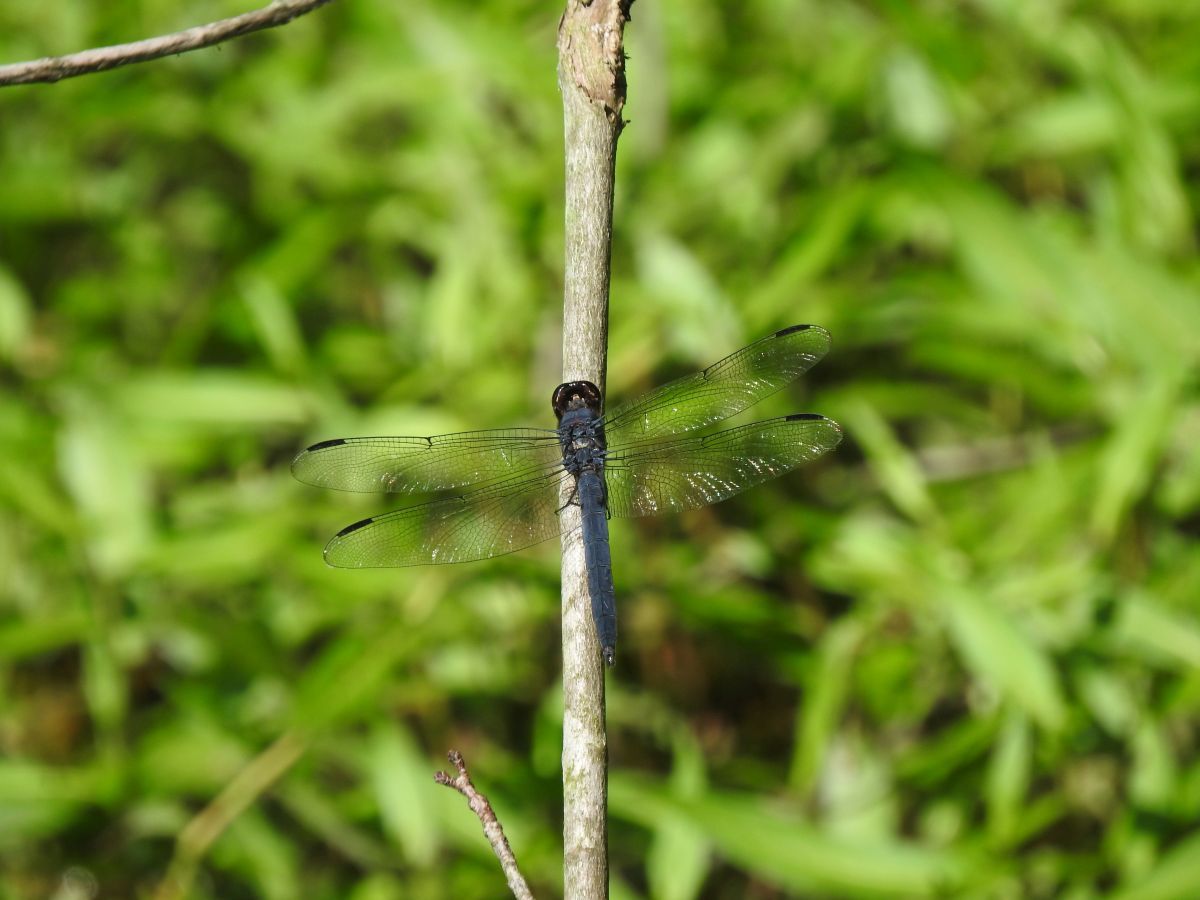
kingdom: Animalia
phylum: Arthropoda
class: Insecta
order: Odonata
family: Libellulidae
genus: Libellula
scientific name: Libellula incesta
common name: Slaty skimmer
